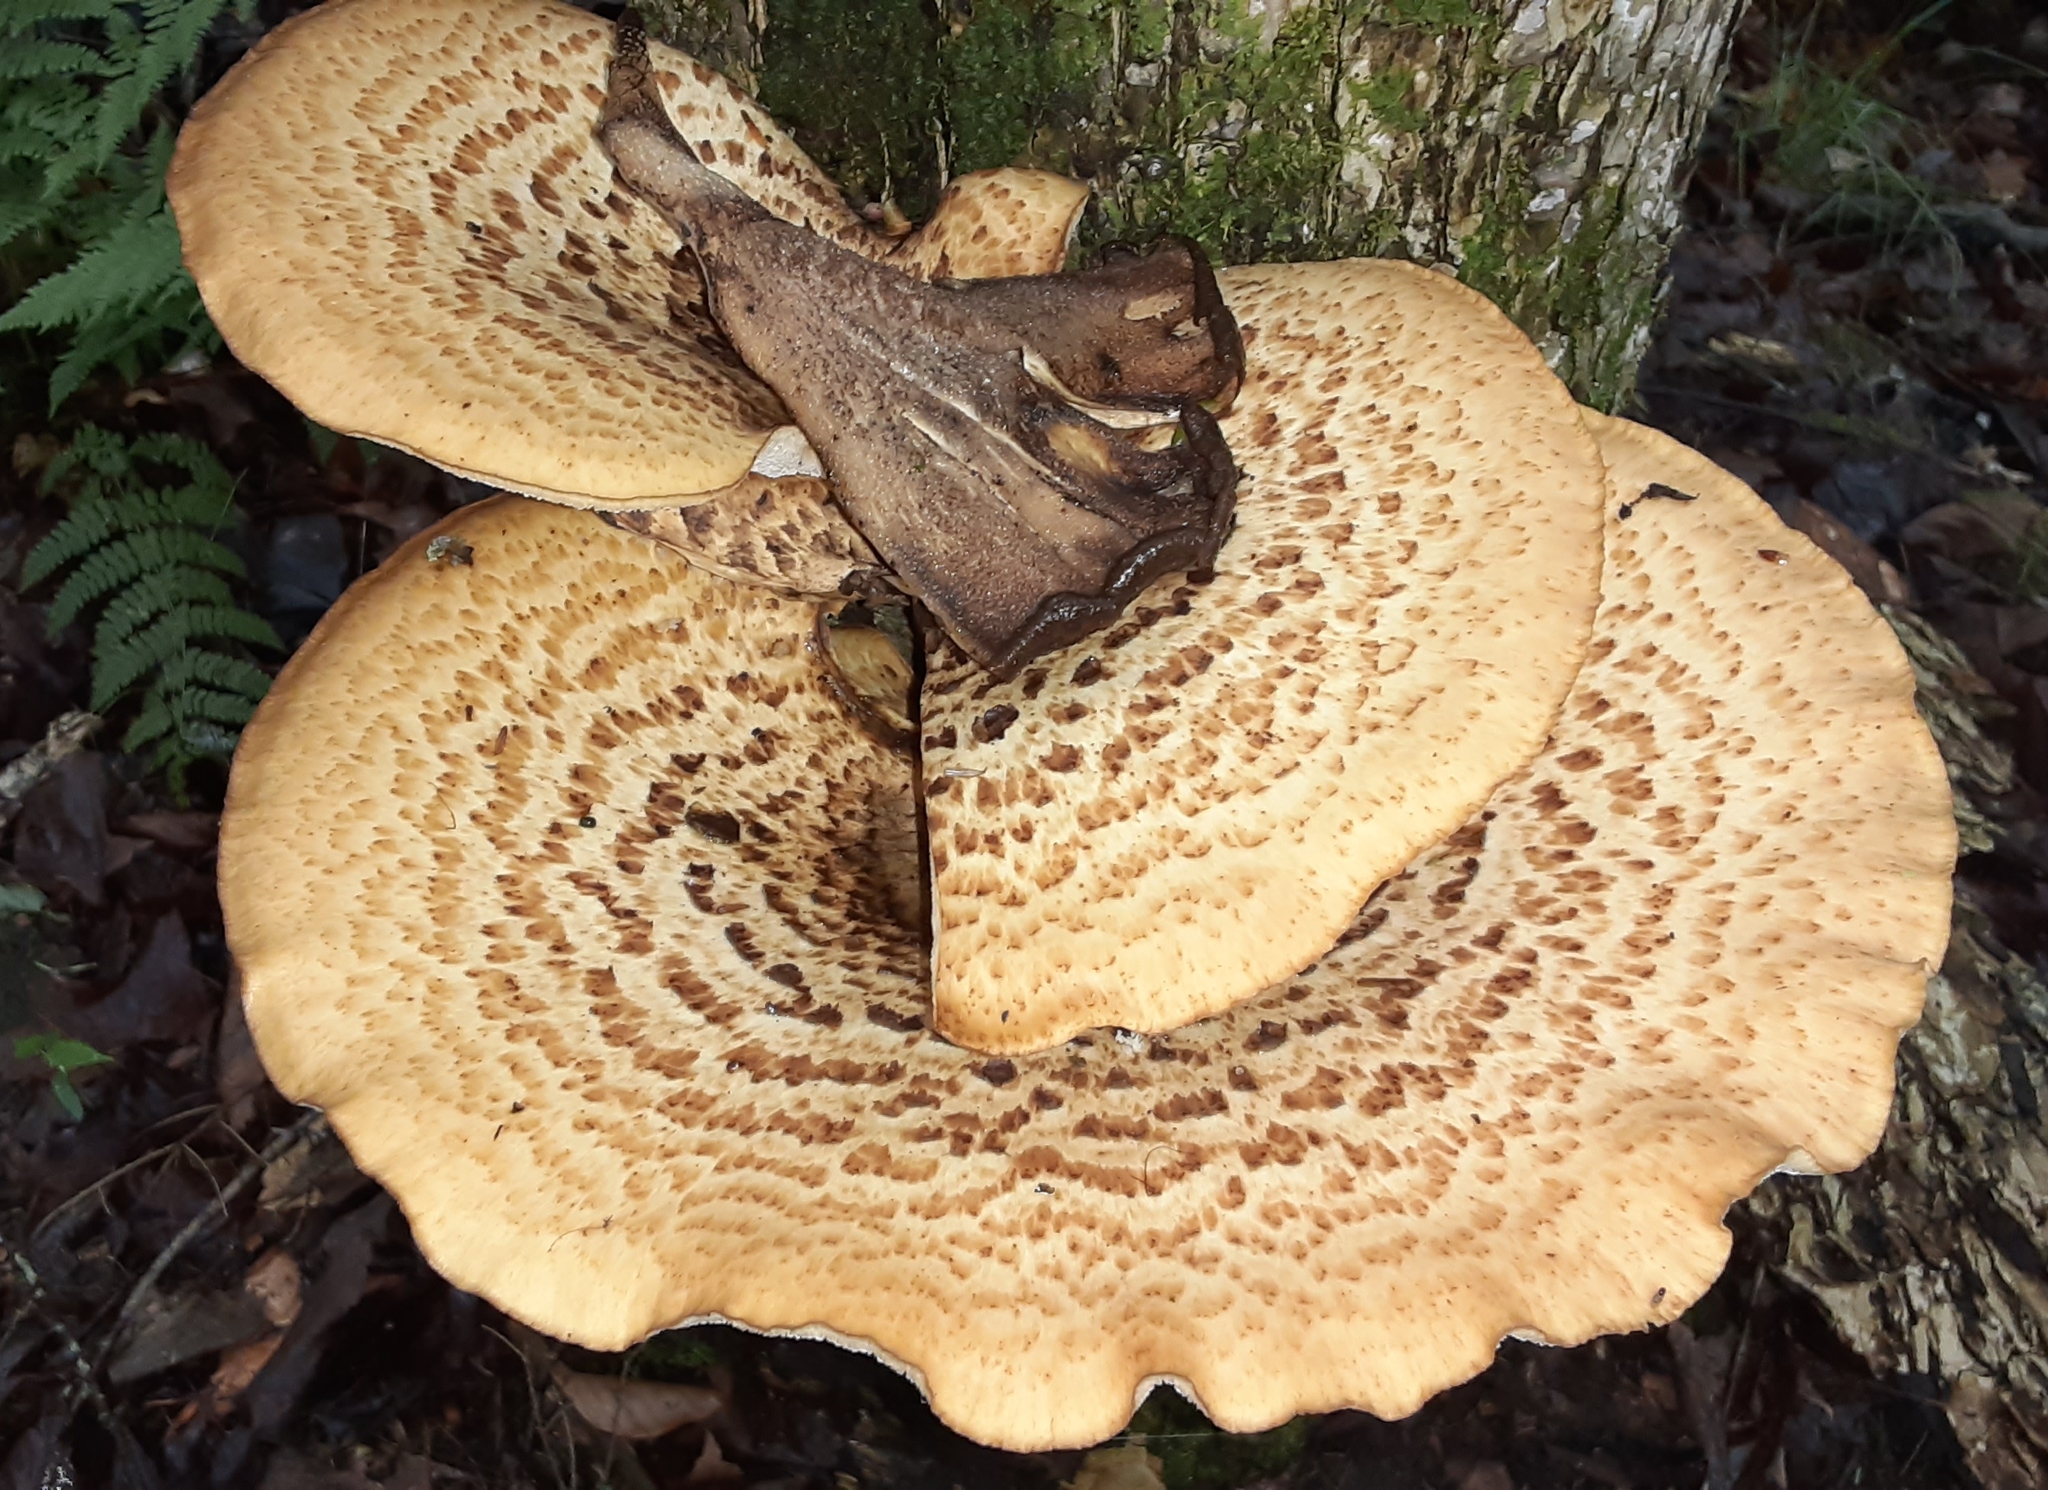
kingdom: Fungi
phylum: Basidiomycota
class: Agaricomycetes
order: Polyporales
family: Polyporaceae
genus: Cerioporus
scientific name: Cerioporus squamosus
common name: Dryad's saddle
